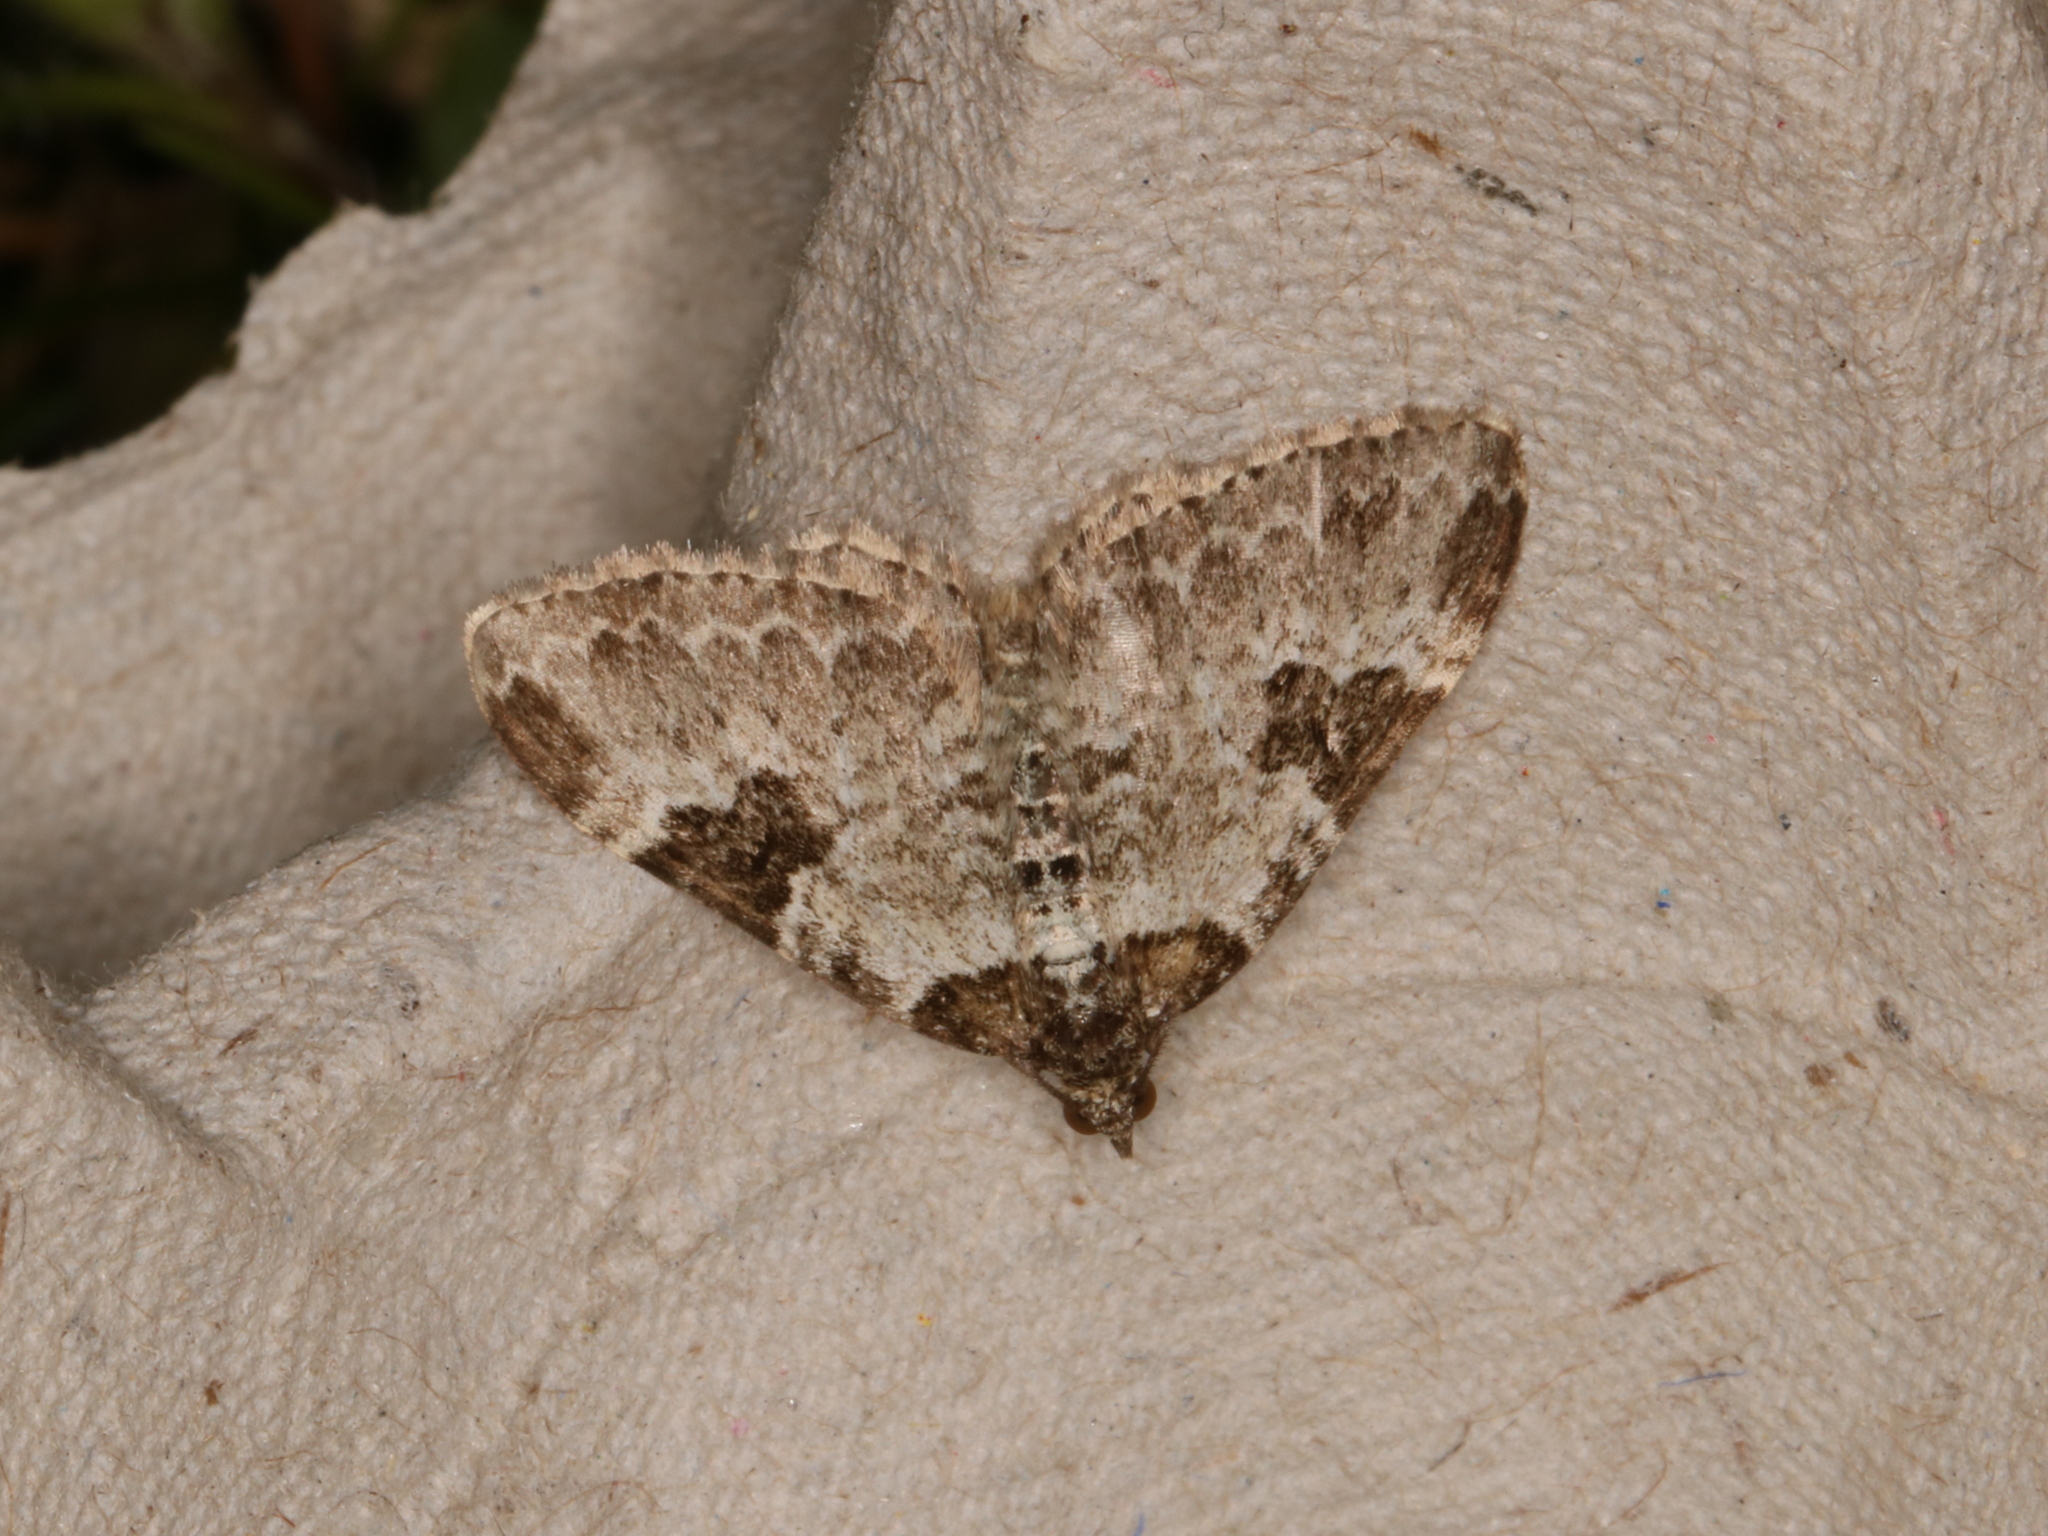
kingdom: Animalia
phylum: Arthropoda
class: Insecta
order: Lepidoptera
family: Geometridae
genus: Xanthorhoe
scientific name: Xanthorhoe fluctuata
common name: Garden carpet
